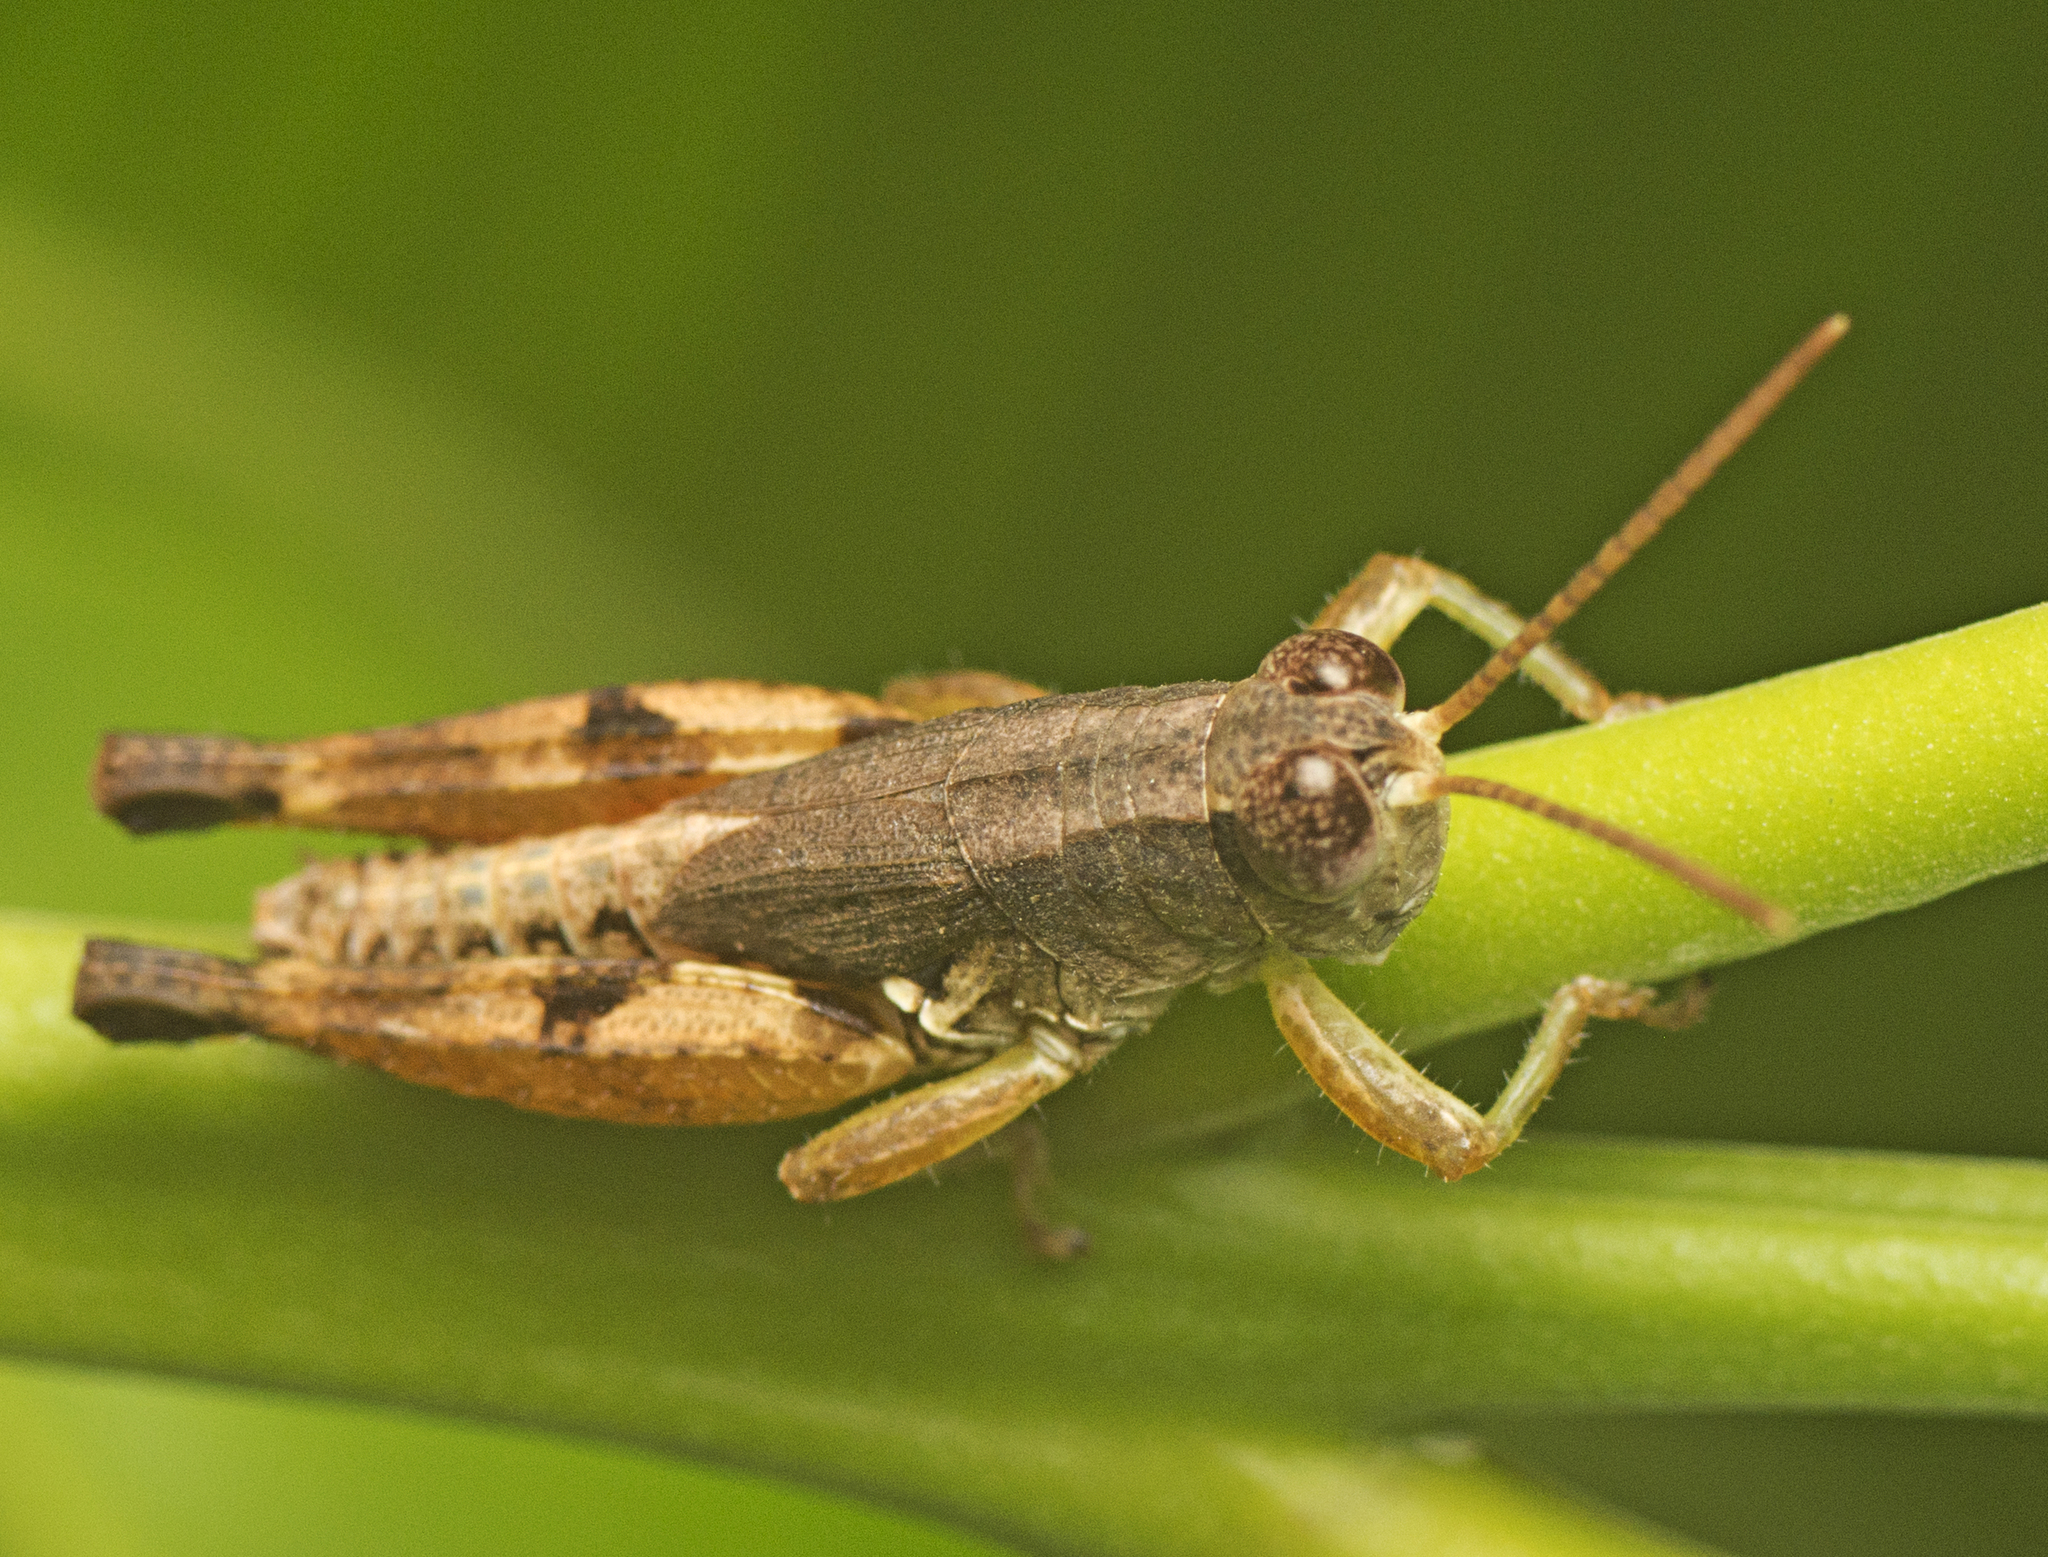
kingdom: Animalia
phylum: Arthropoda
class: Insecta
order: Orthoptera
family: Acrididae
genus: Phaulacridium
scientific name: Phaulacridium vittatum
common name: Wingless grasshopper
